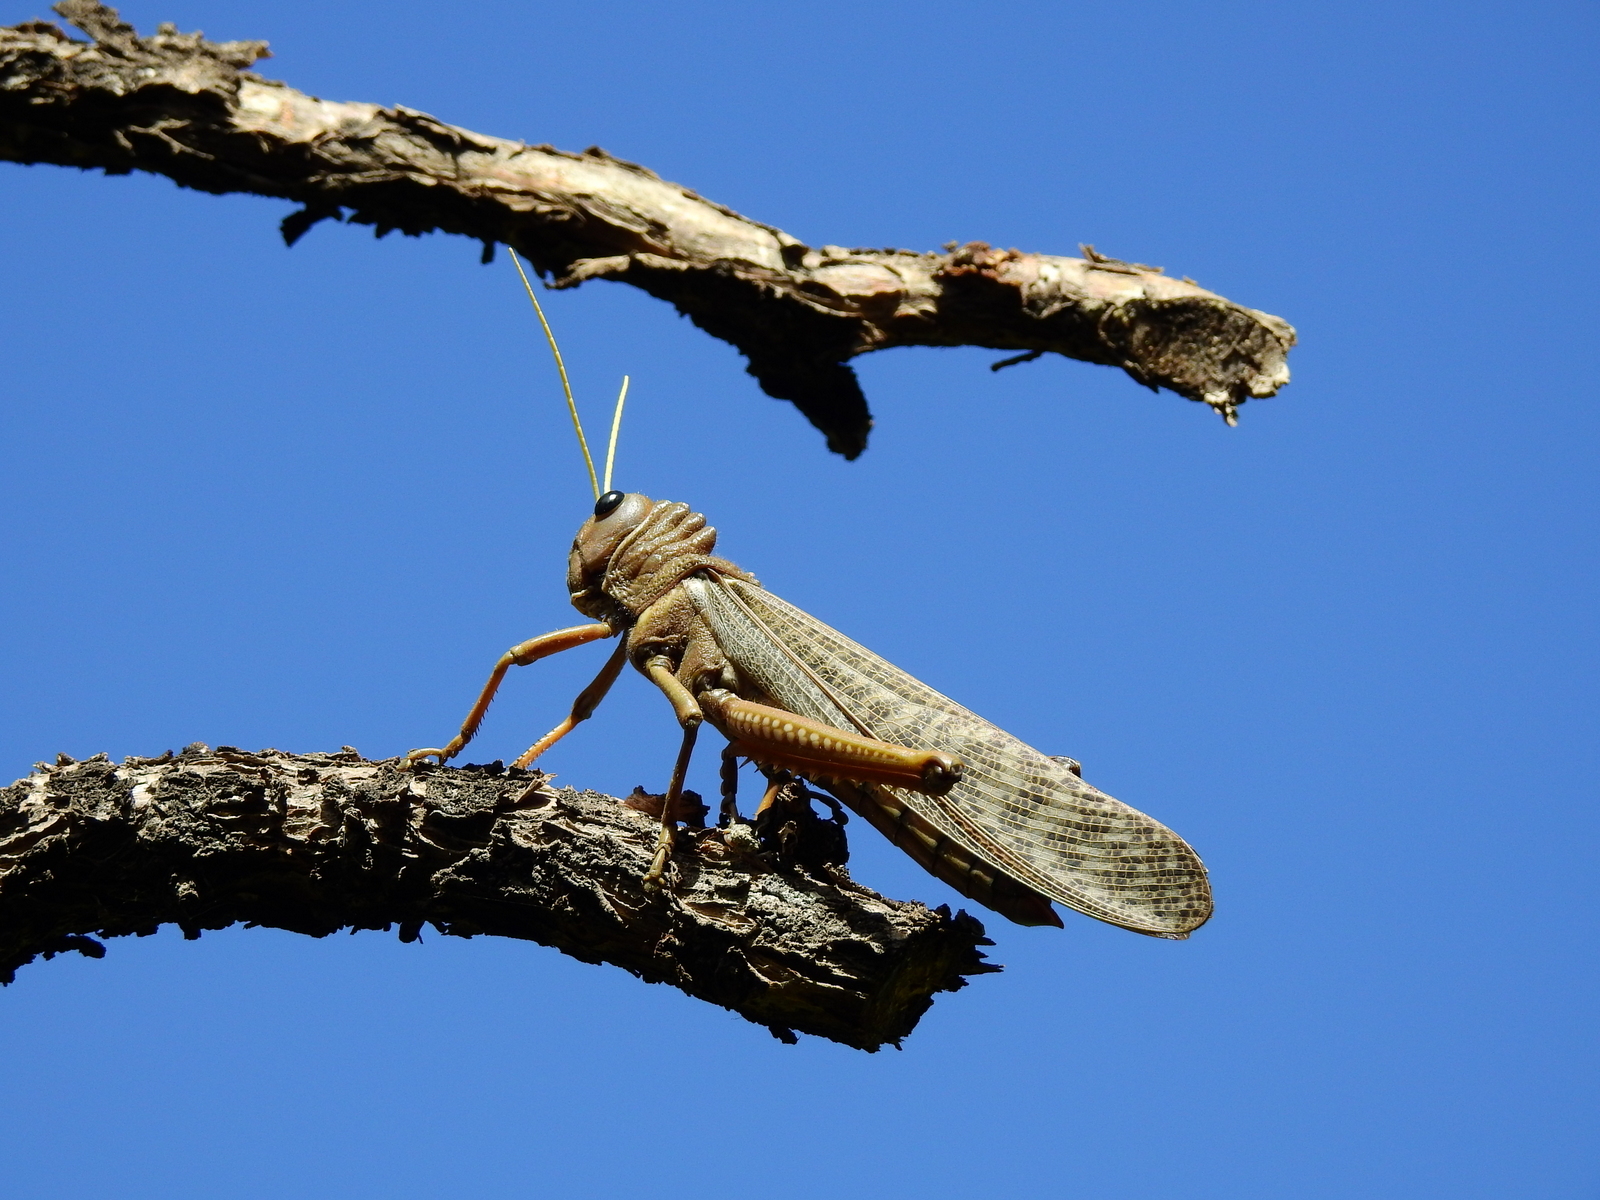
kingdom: Animalia
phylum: Arthropoda
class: Insecta
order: Orthoptera
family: Romaleidae
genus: Tropidacris
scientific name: Tropidacris collaris
